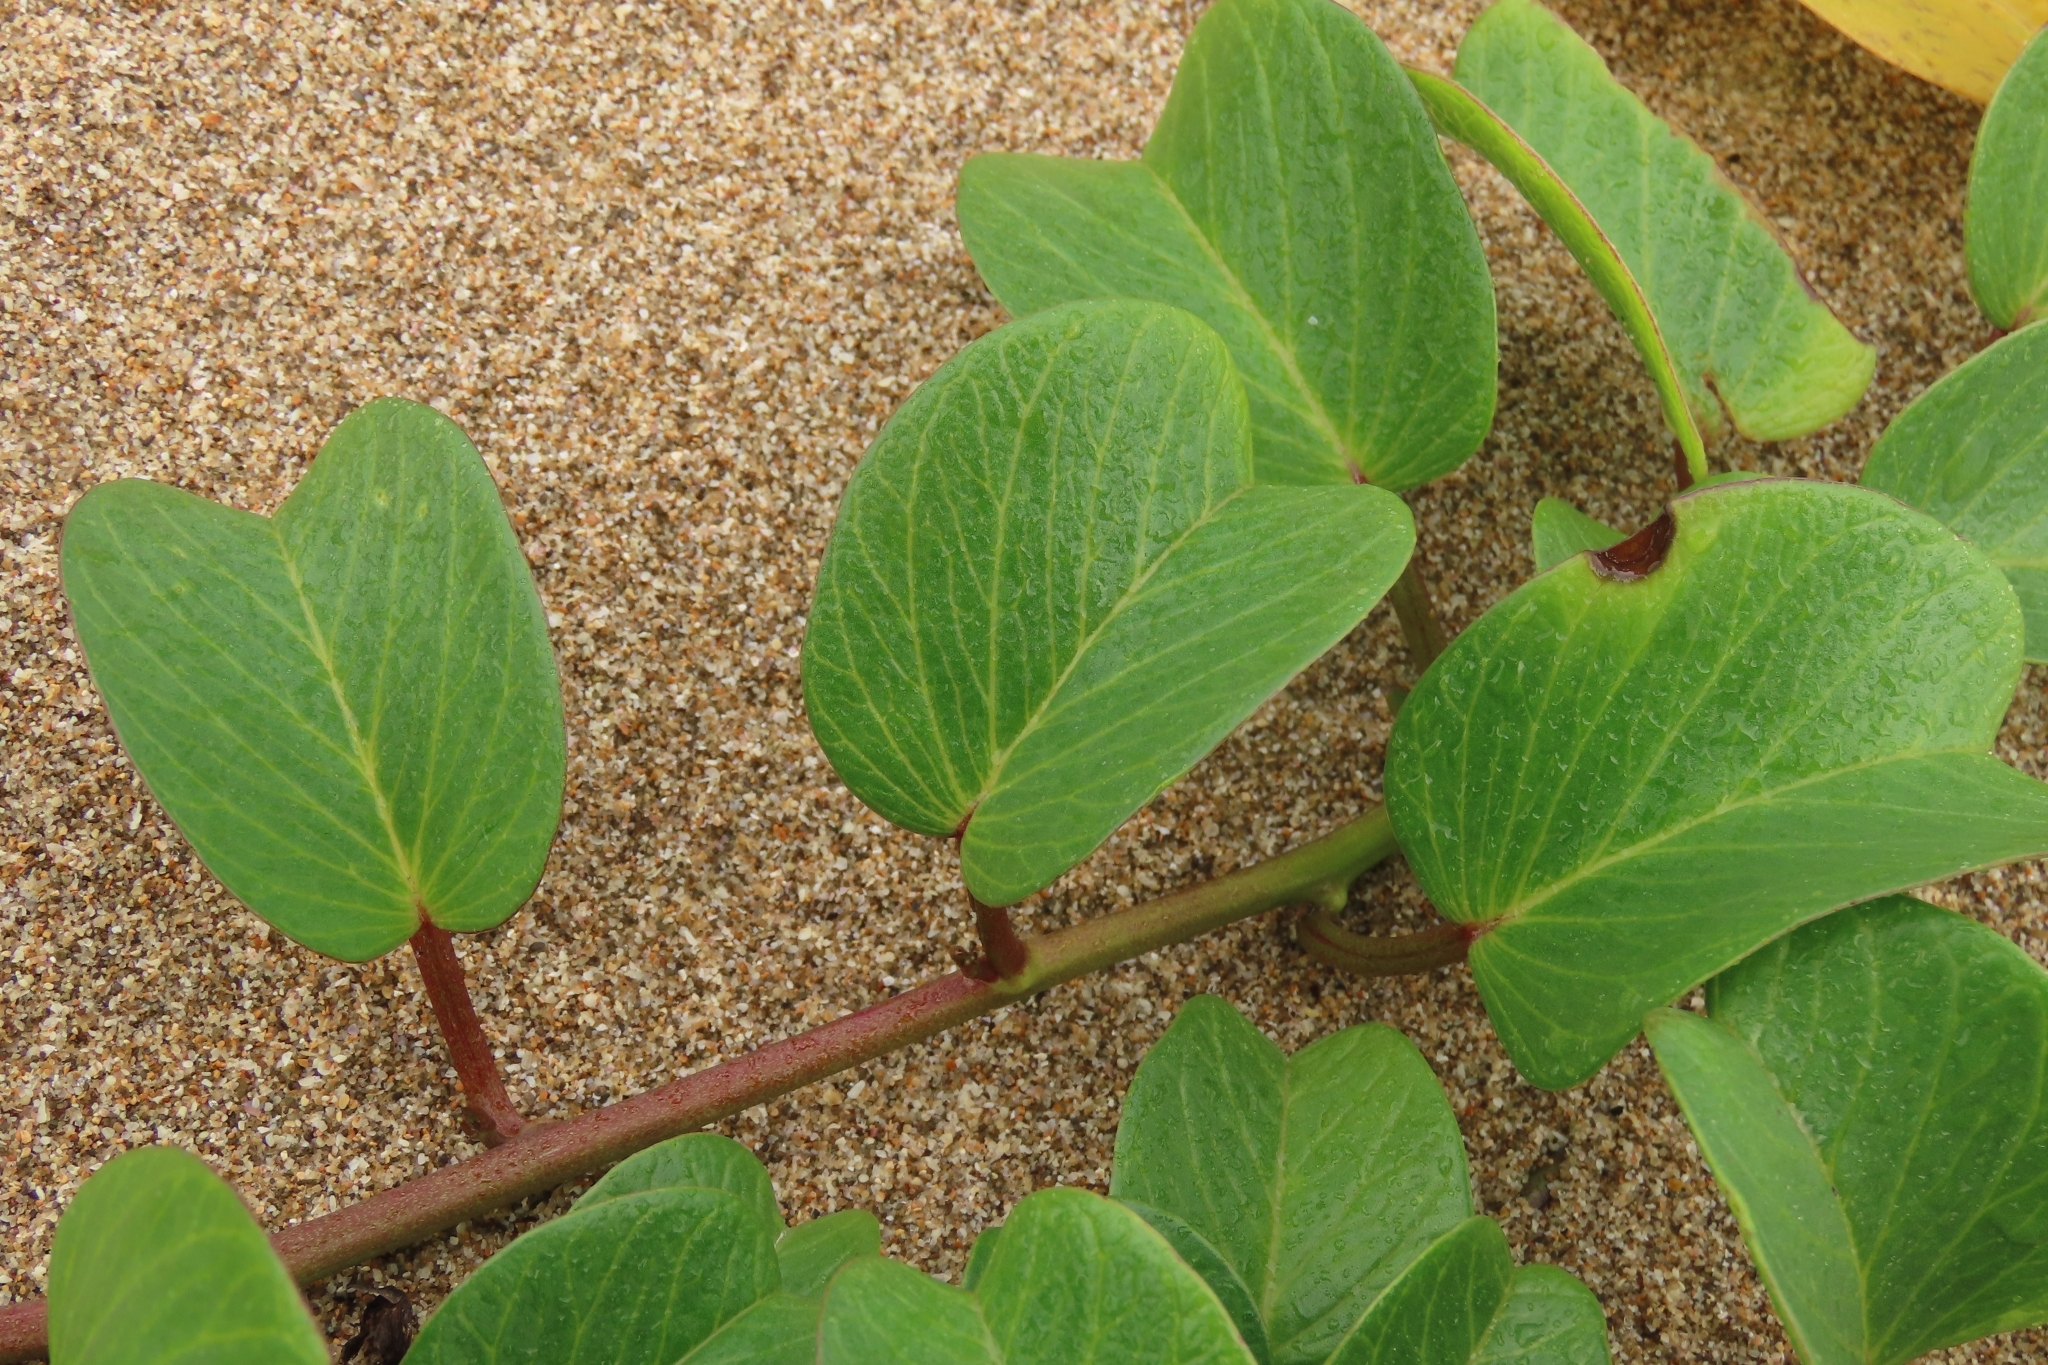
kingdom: Plantae
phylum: Tracheophyta
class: Magnoliopsida
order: Solanales
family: Convolvulaceae
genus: Ipomoea
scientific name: Ipomoea pes-caprae
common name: Beach morning glory
